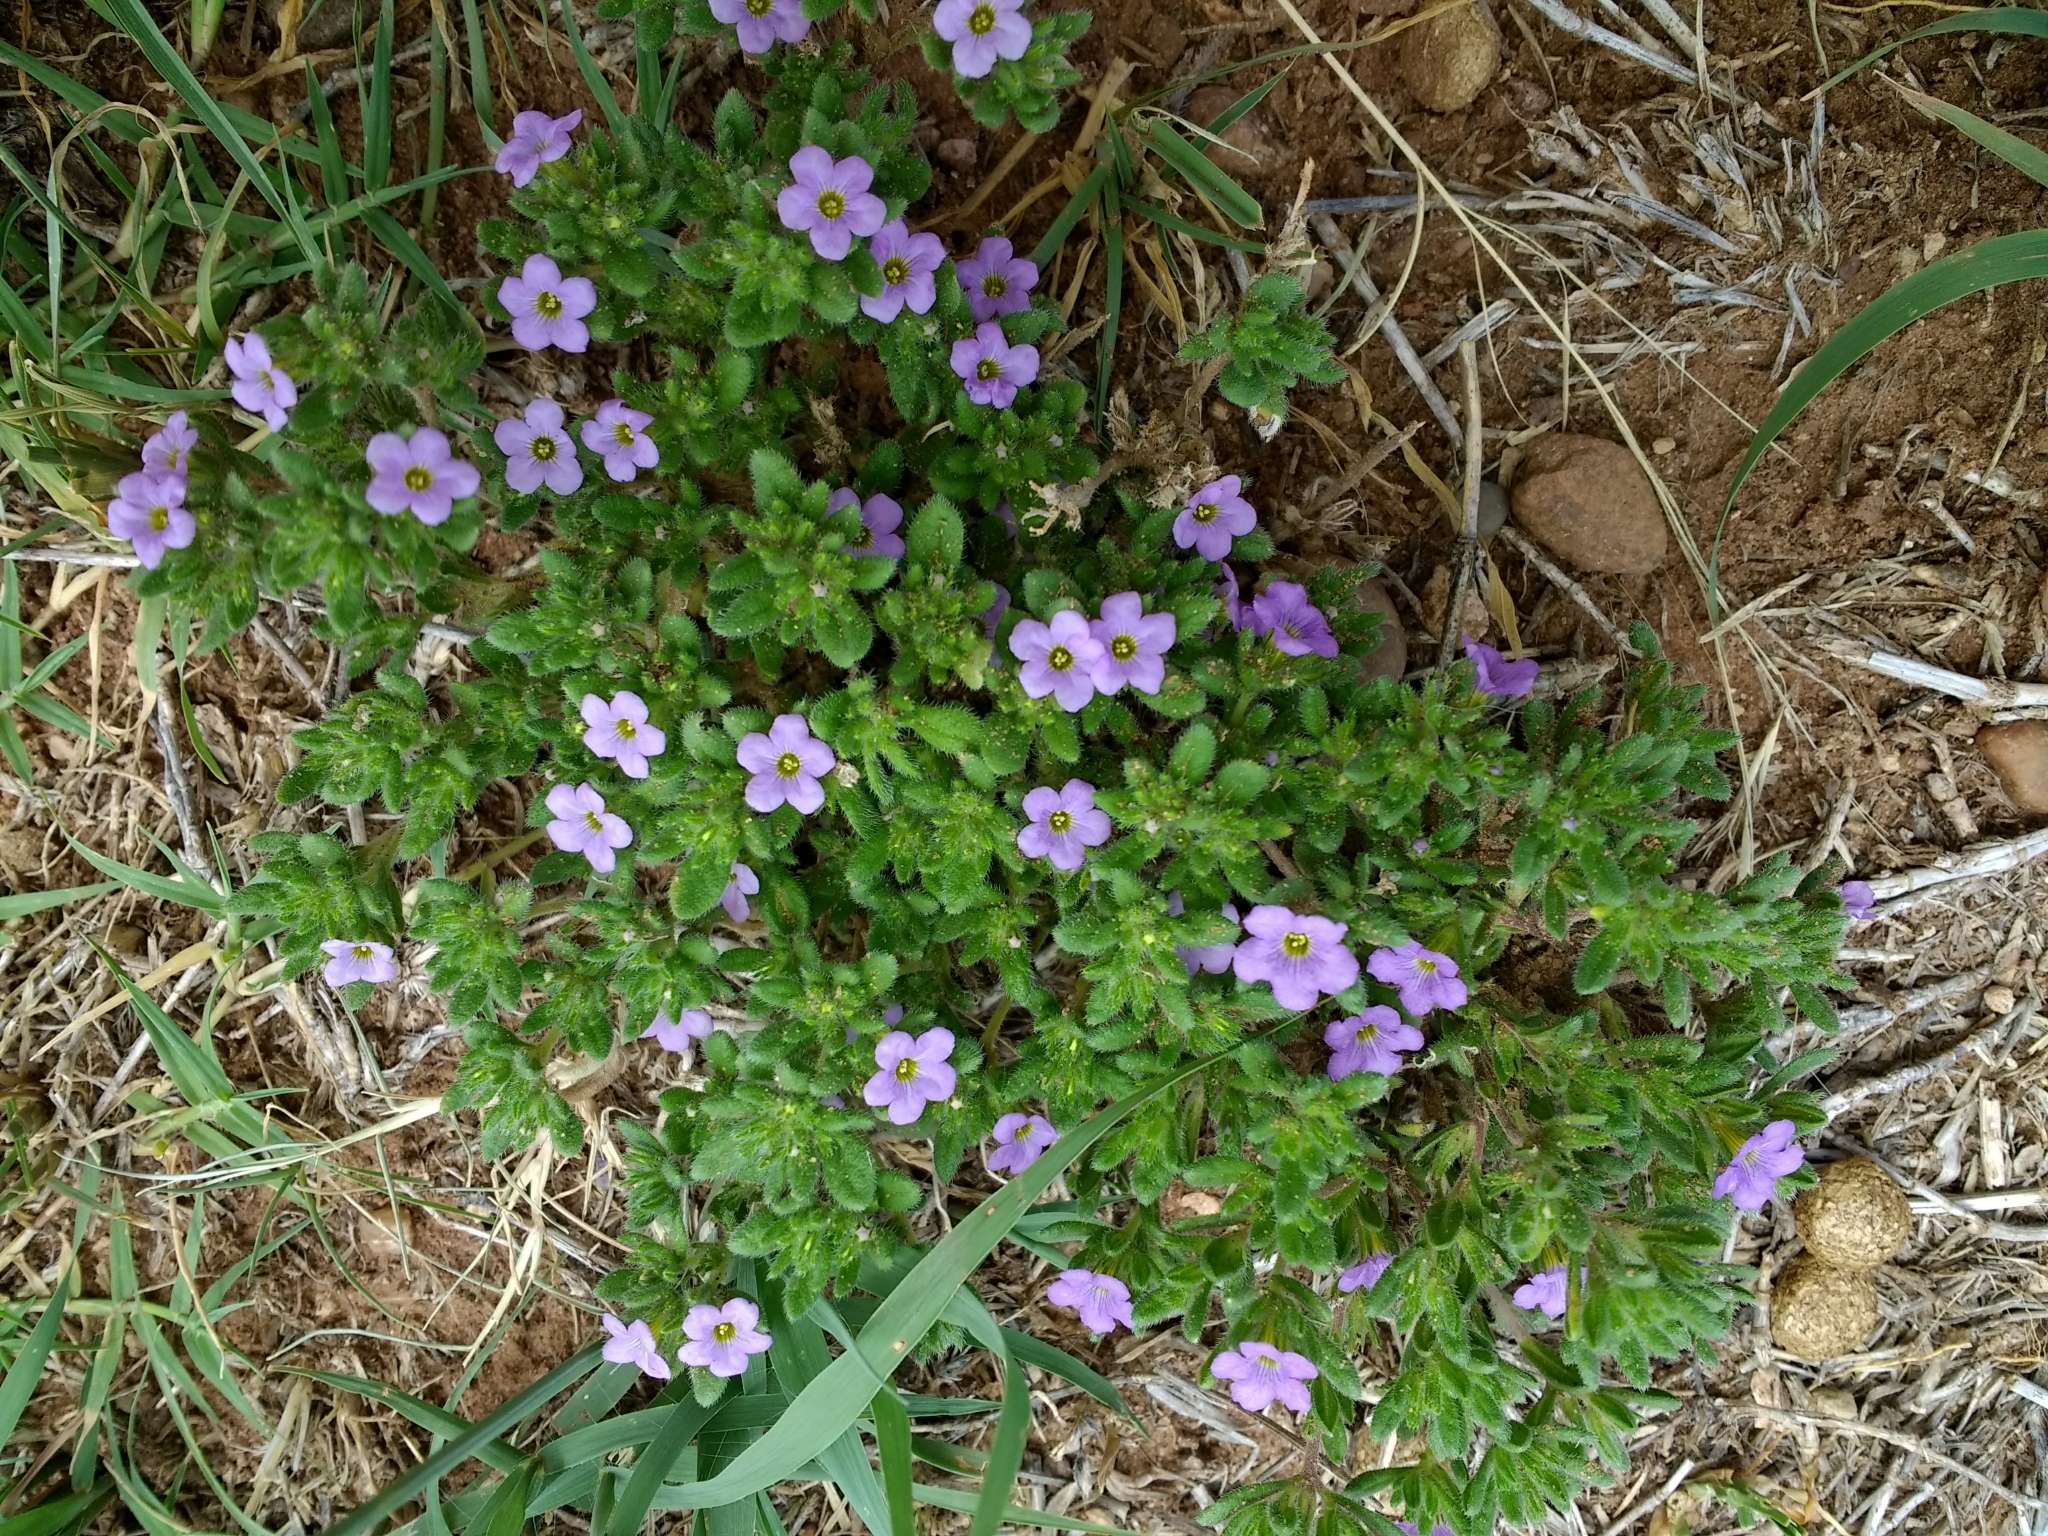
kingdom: Plantae
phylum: Tracheophyta
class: Magnoliopsida
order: Boraginales
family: Namaceae
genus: Nama
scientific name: Nama hispida
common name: Bristly nama
